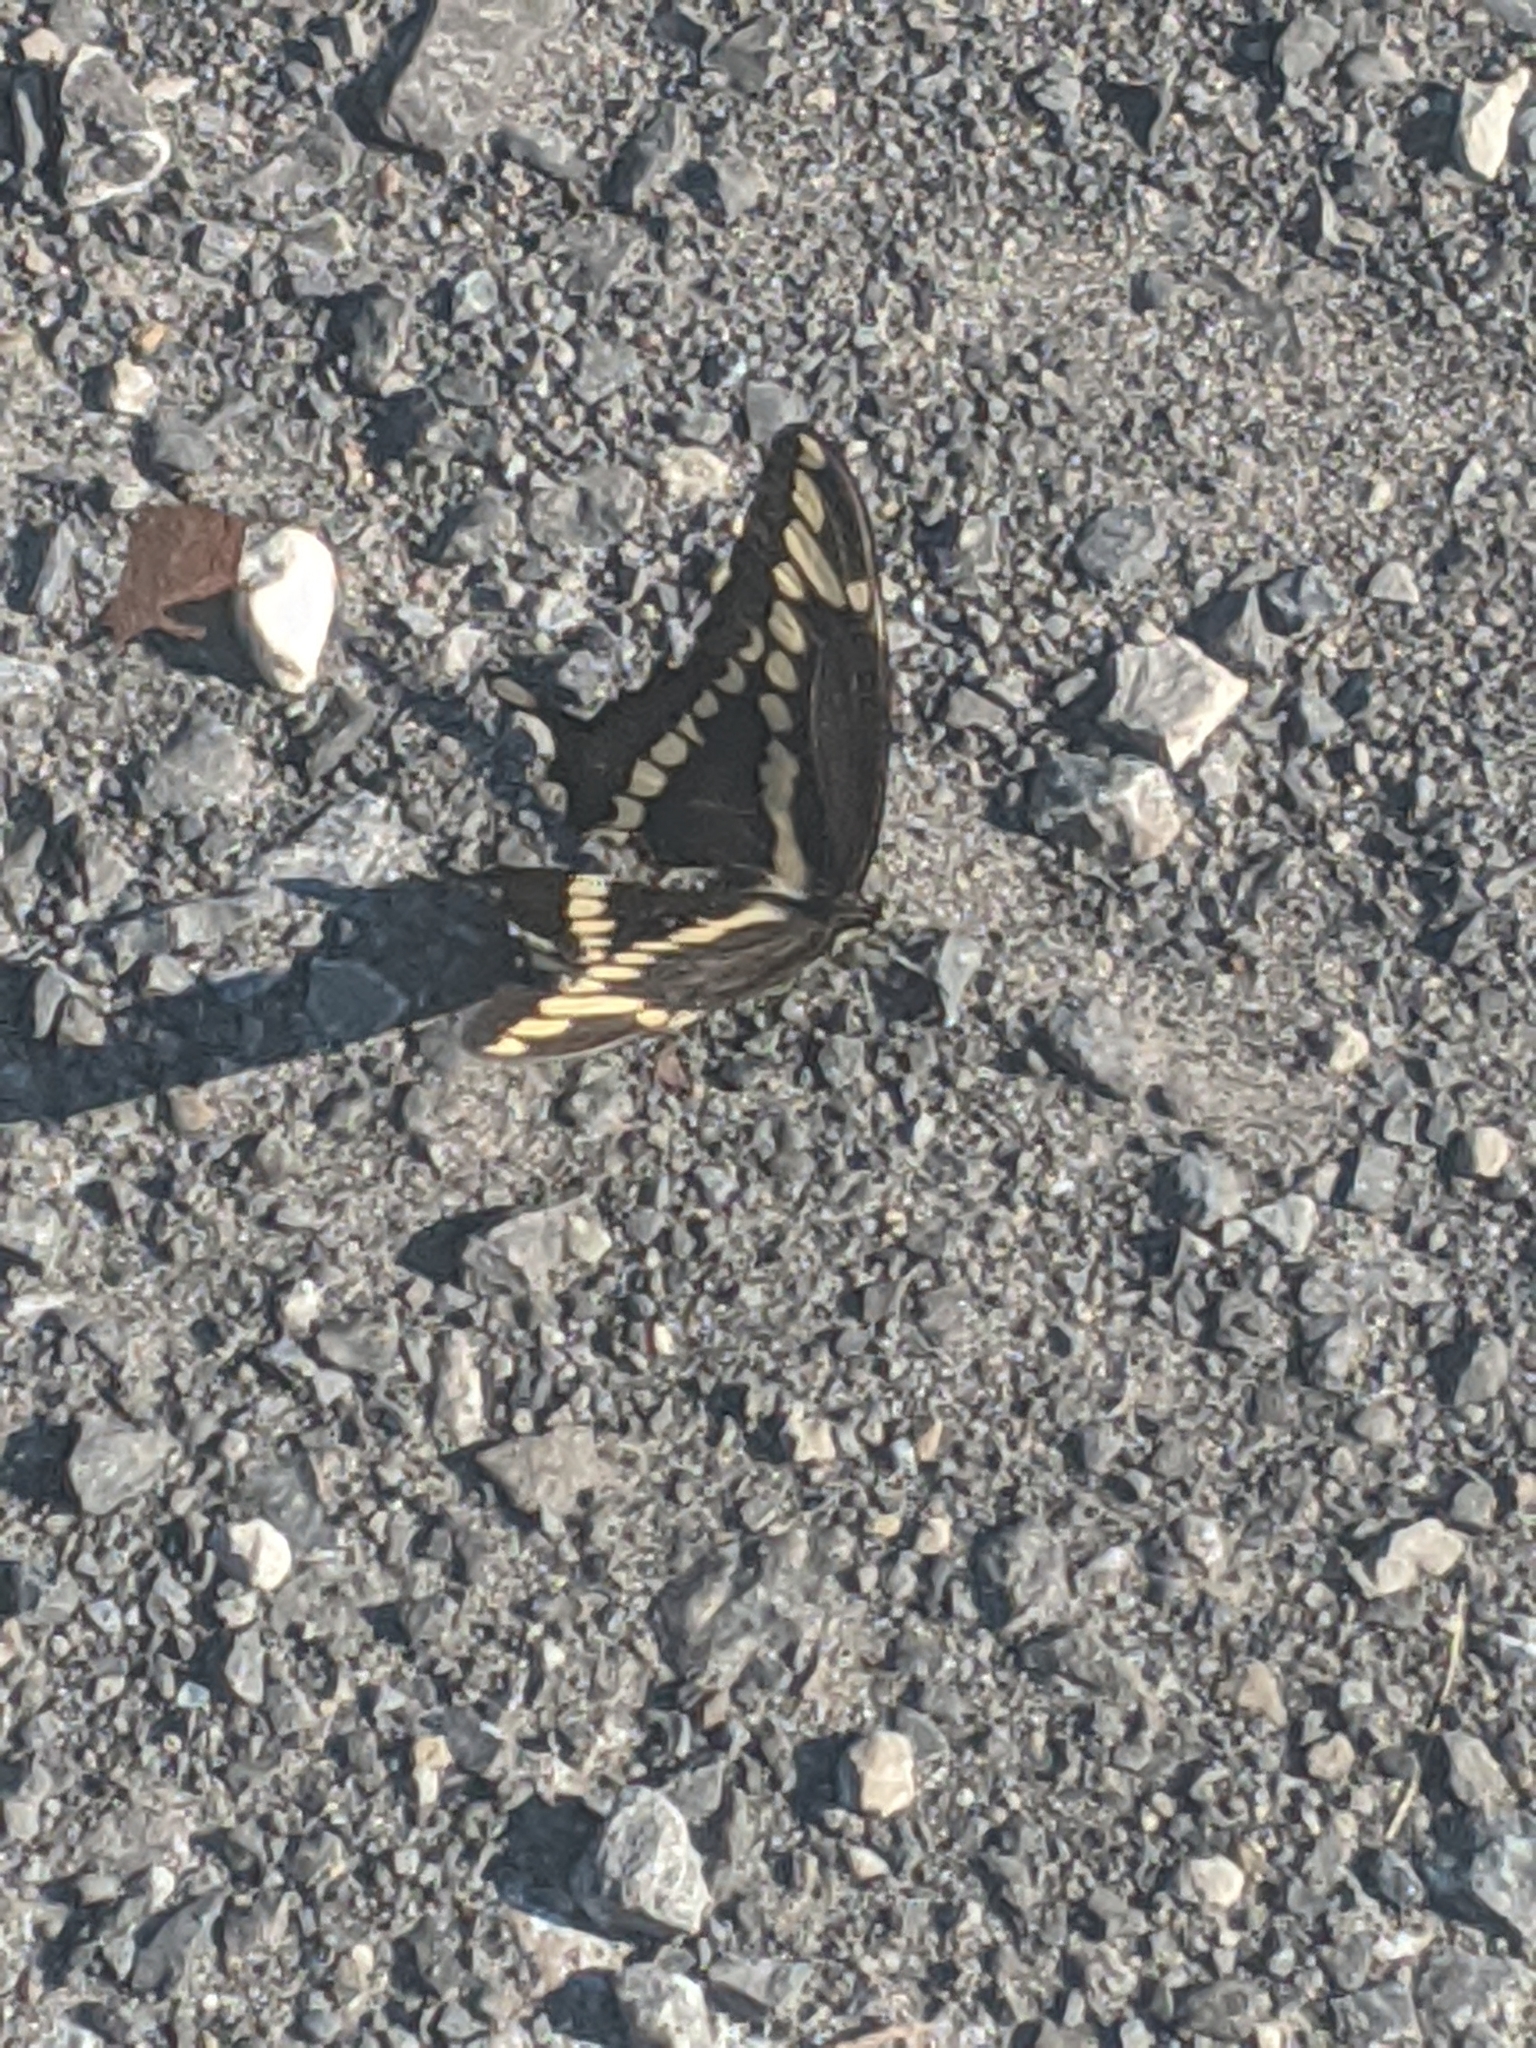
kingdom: Animalia
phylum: Arthropoda
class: Insecta
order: Lepidoptera
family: Papilionidae
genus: Papilio
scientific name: Papilio cresphontes
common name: Giant swallowtail
